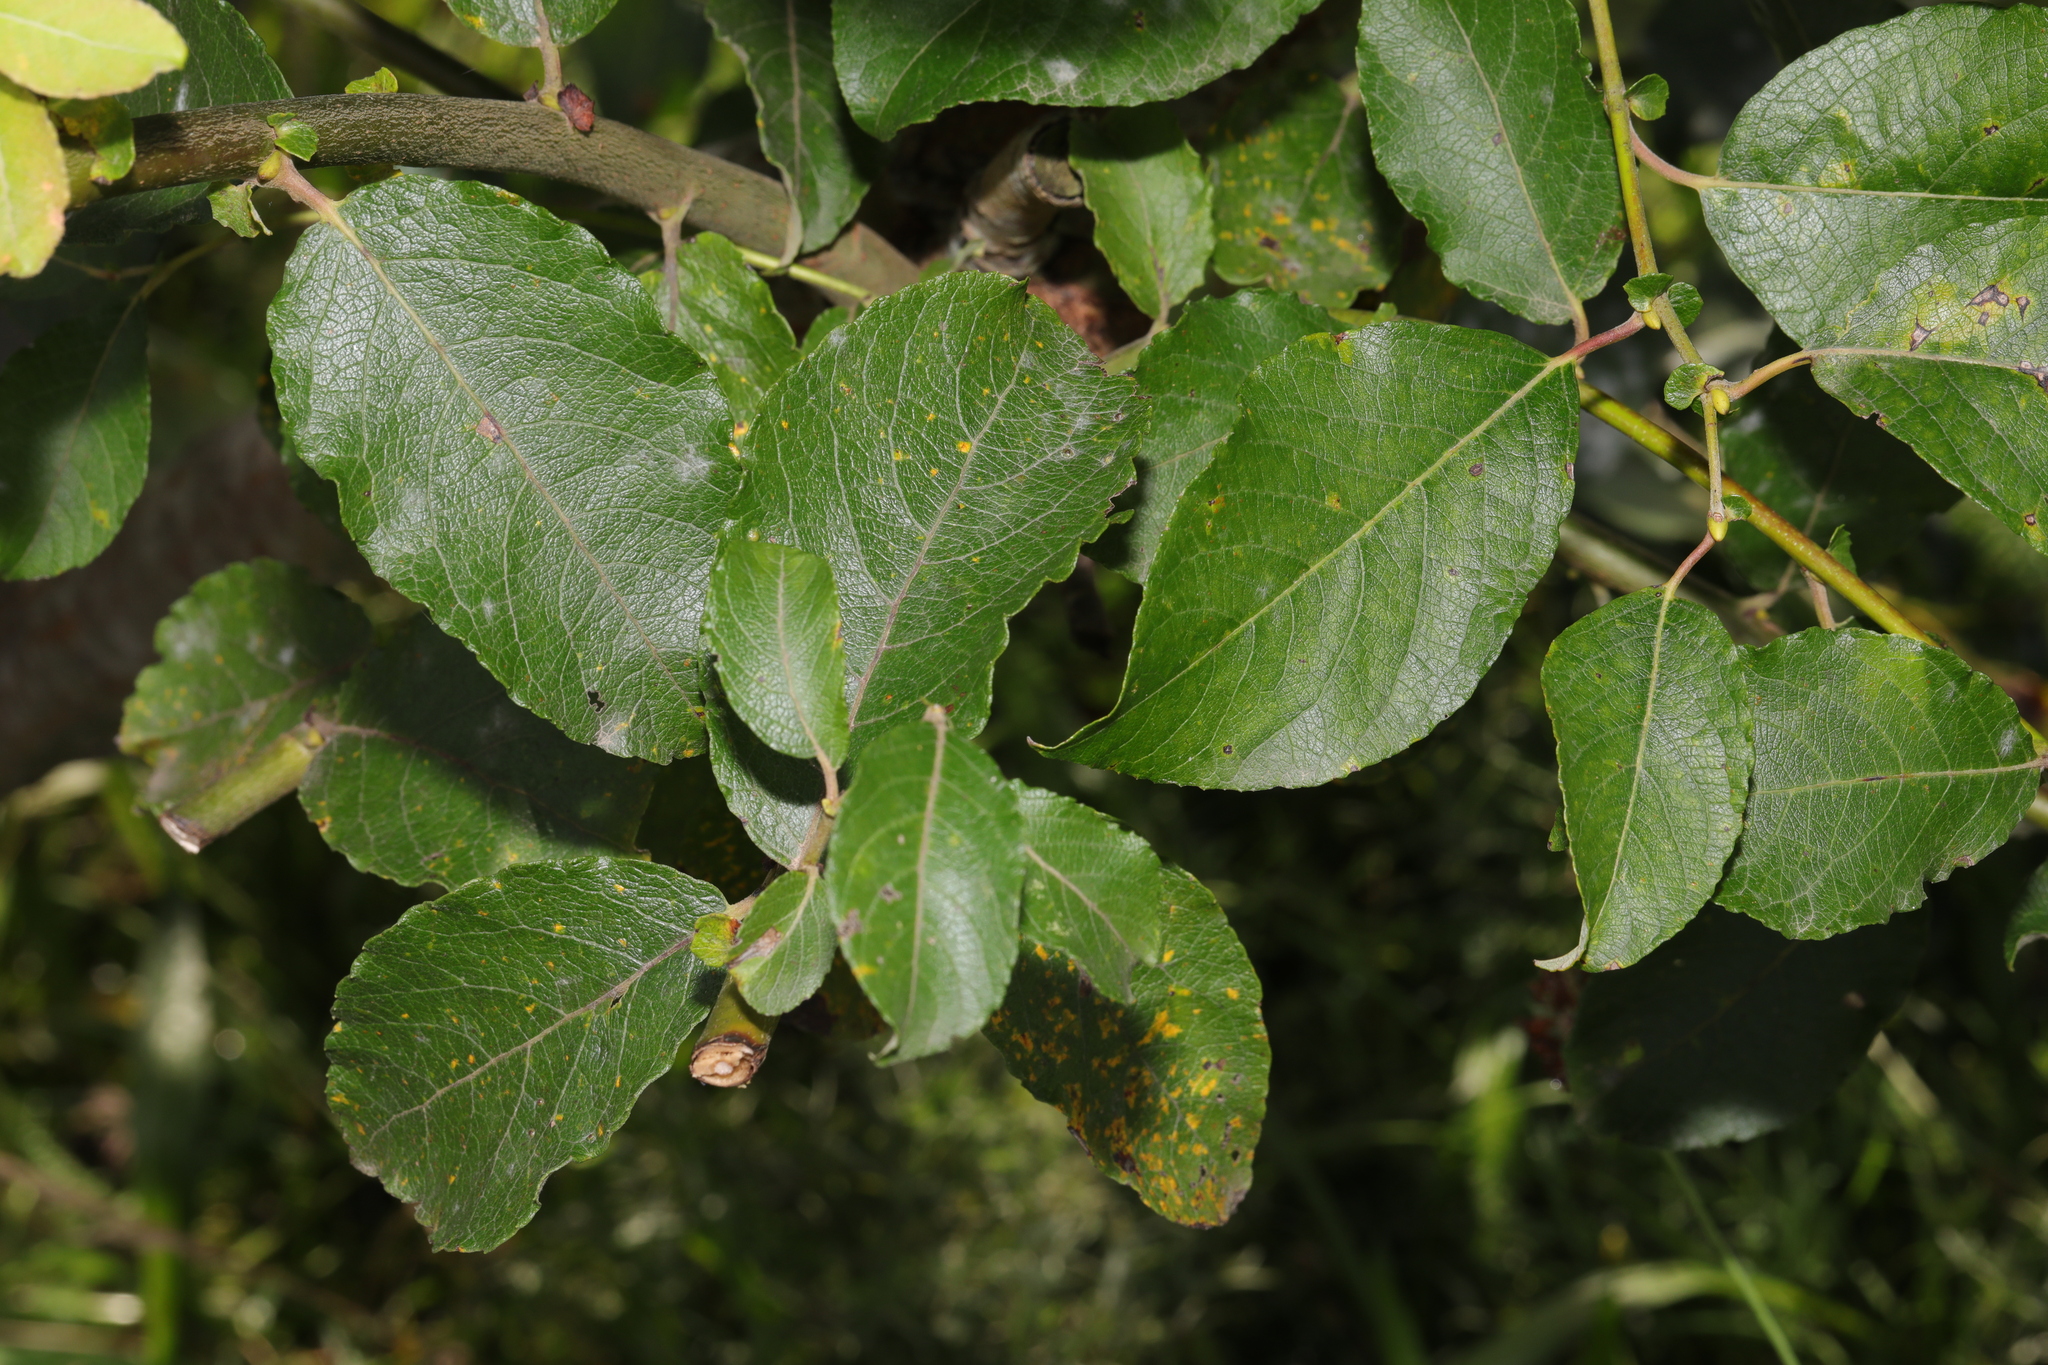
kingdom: Plantae
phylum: Tracheophyta
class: Magnoliopsida
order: Malpighiales
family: Salicaceae
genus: Salix
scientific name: Salix caprea
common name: Goat willow
